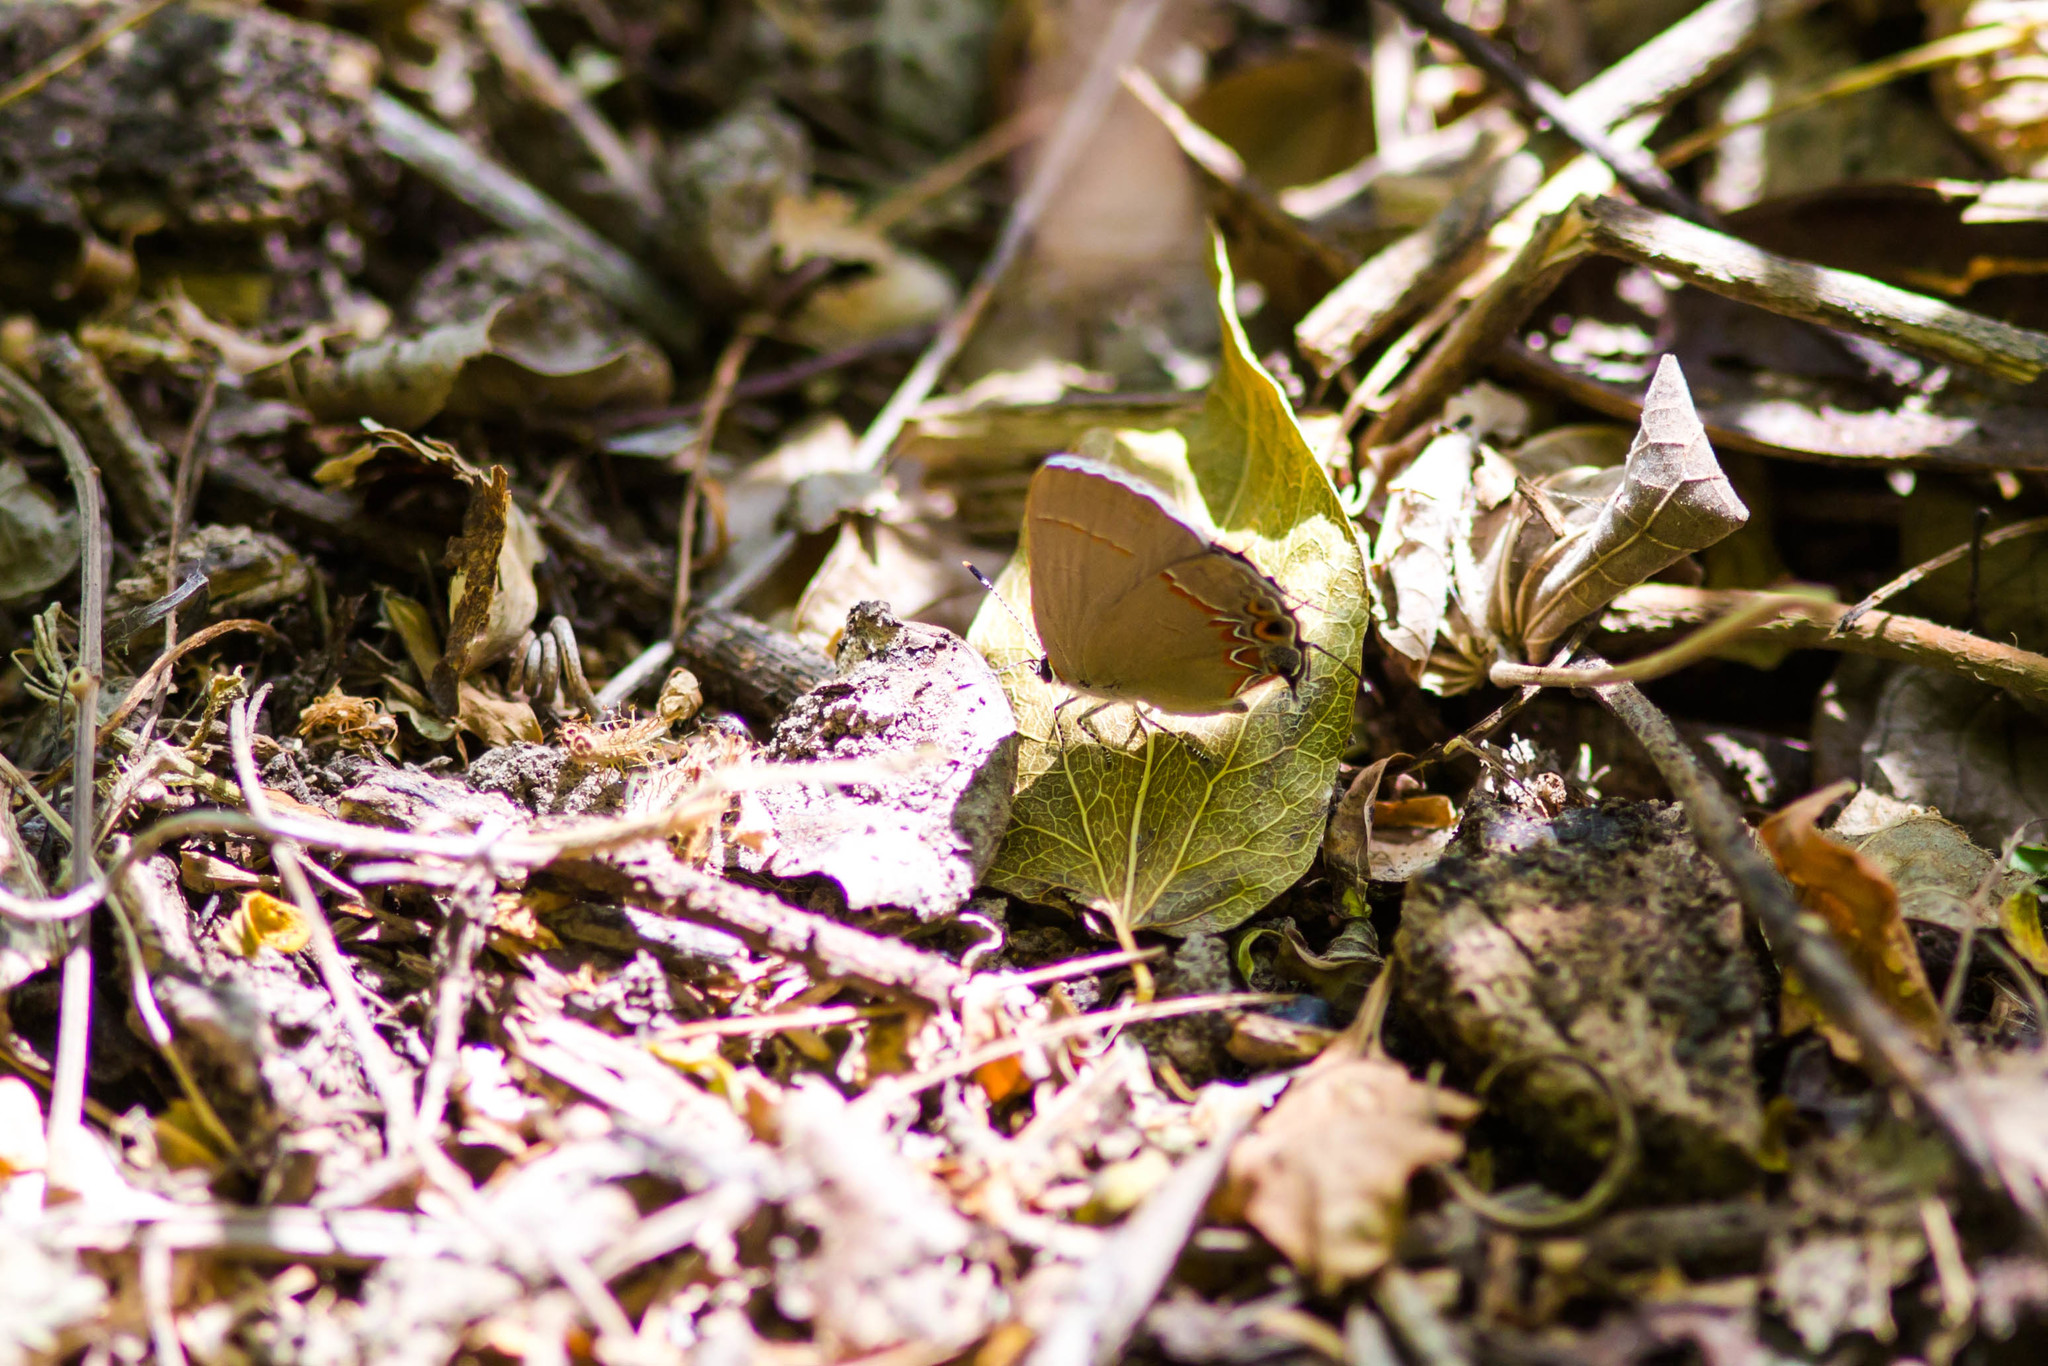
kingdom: Animalia
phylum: Arthropoda
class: Insecta
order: Lepidoptera
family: Lycaenidae
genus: Calycopis
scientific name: Calycopis isobeon
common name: Dusky-blue groundstreak
